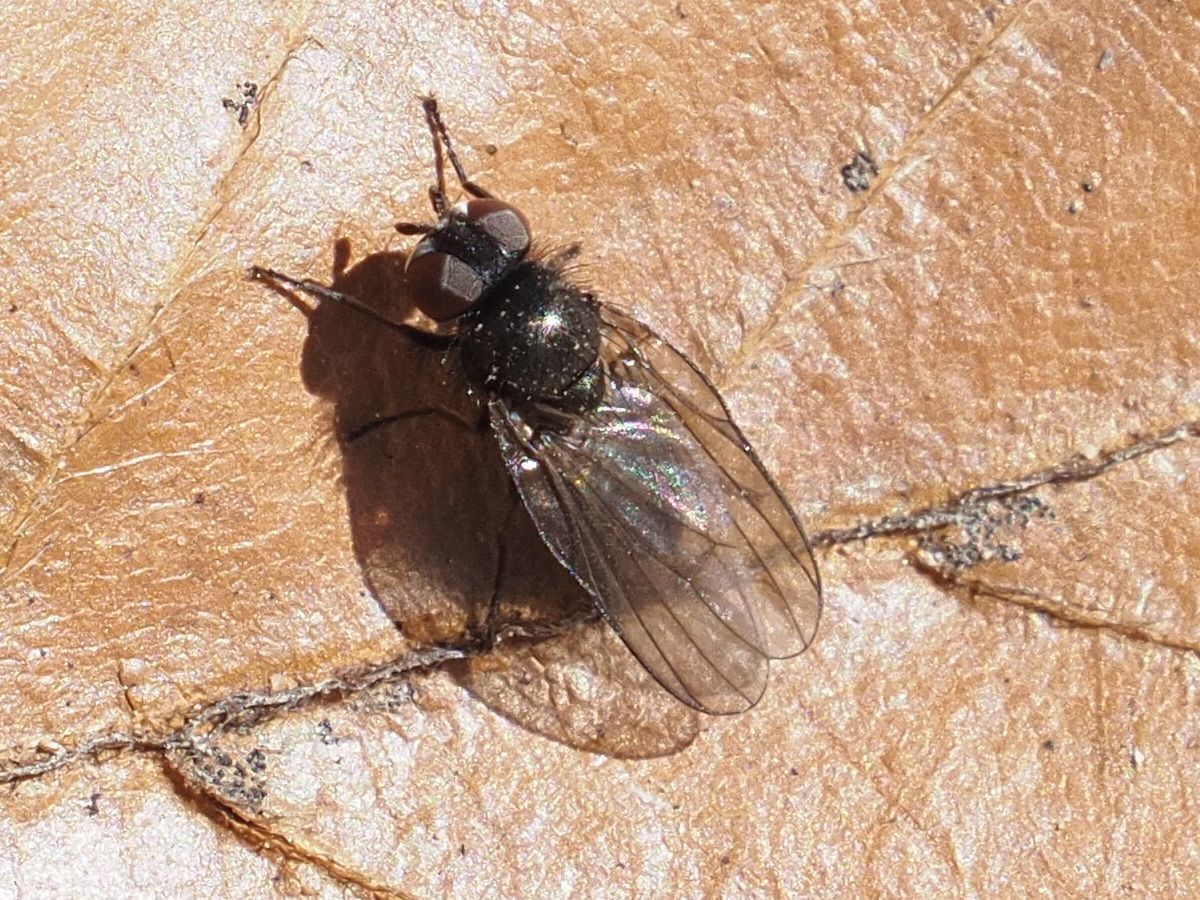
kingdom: Animalia
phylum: Arthropoda
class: Insecta
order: Diptera
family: Lonchaeidae
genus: Earomyia
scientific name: Earomyia lonchaeoides
